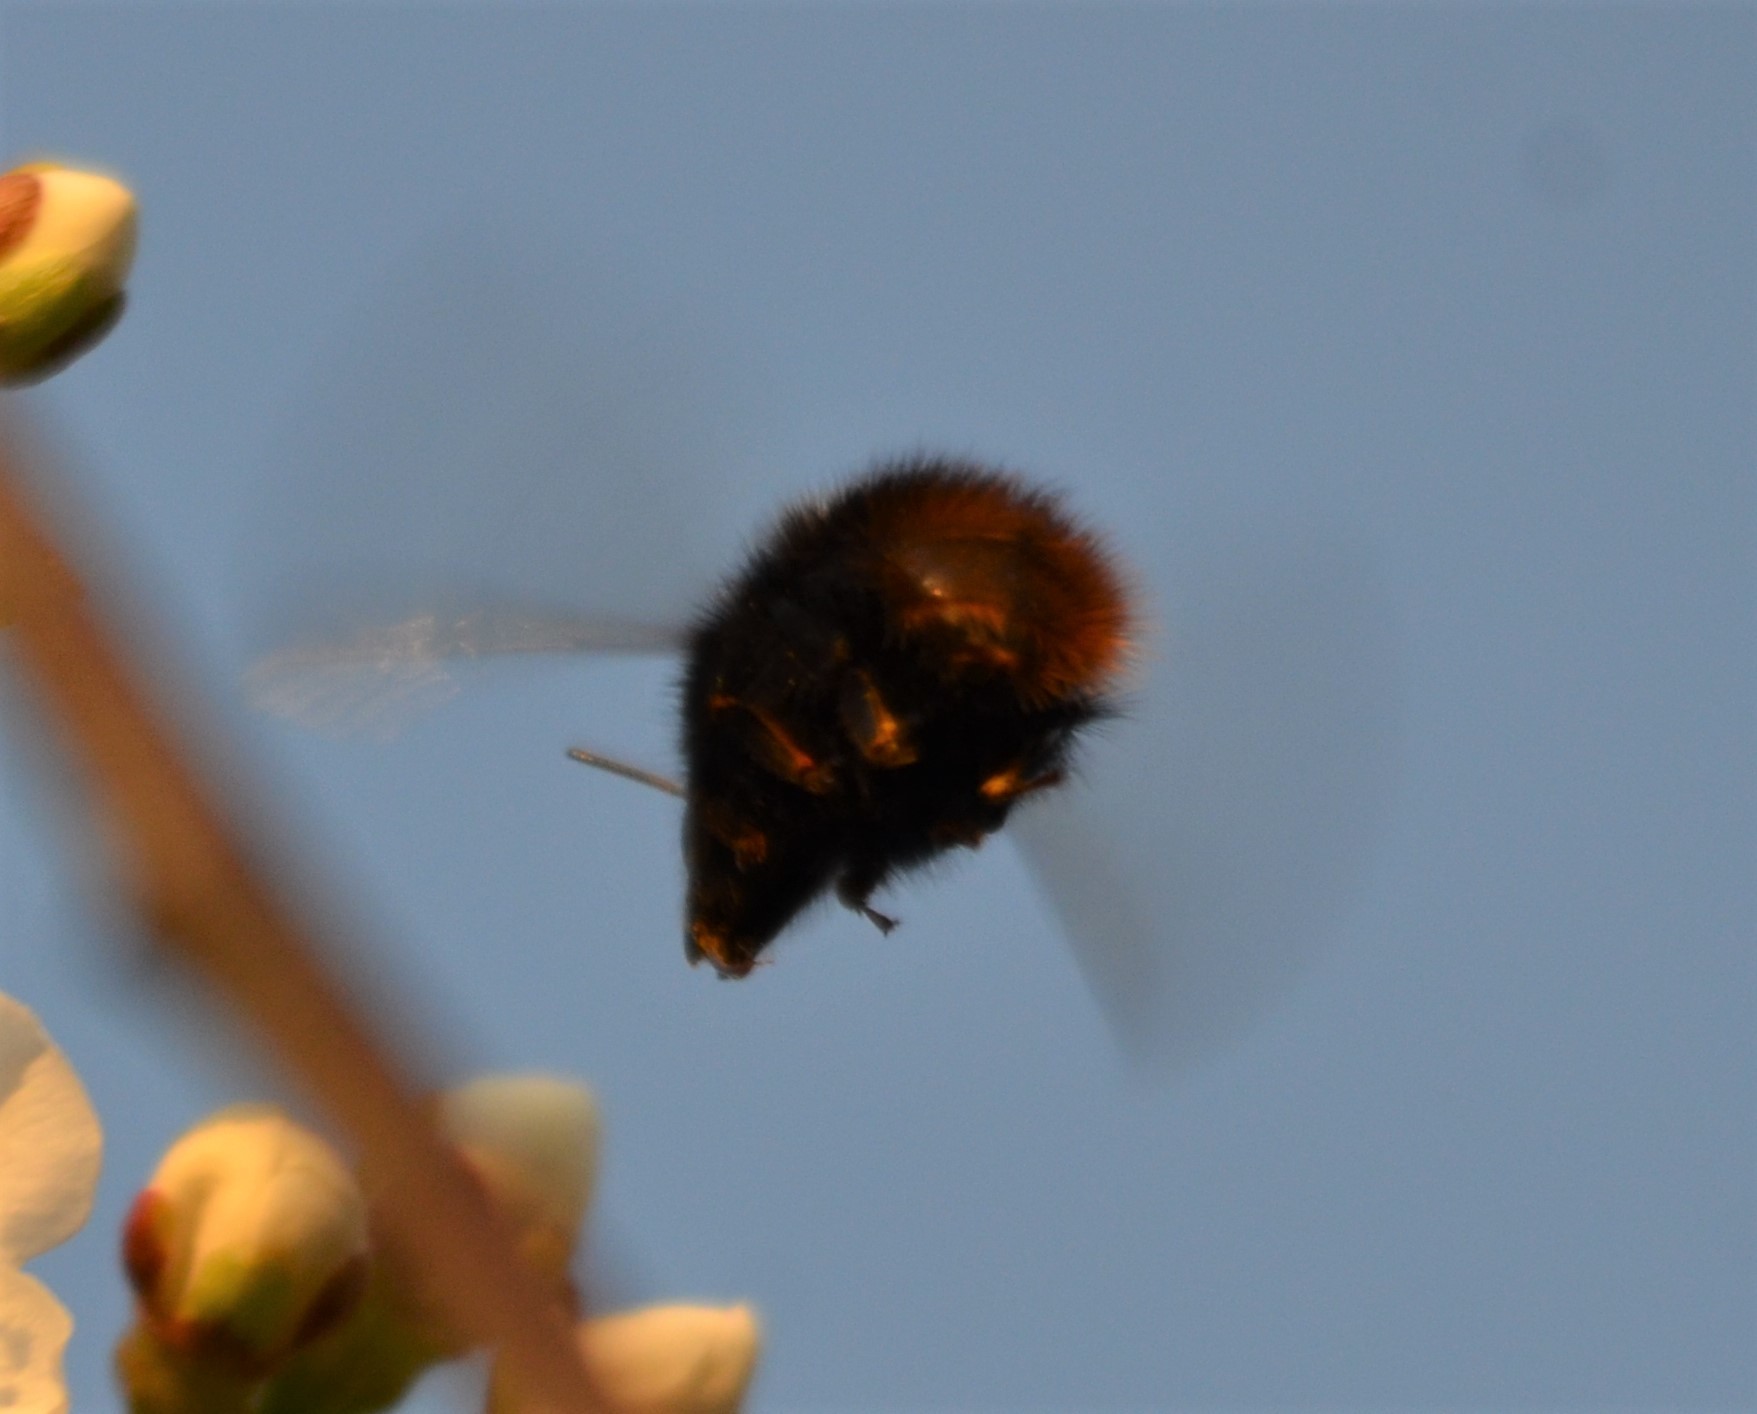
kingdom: Animalia
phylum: Arthropoda
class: Insecta
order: Hymenoptera
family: Apidae
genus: Bombus
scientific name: Bombus pratorum
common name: Early humble-bee
